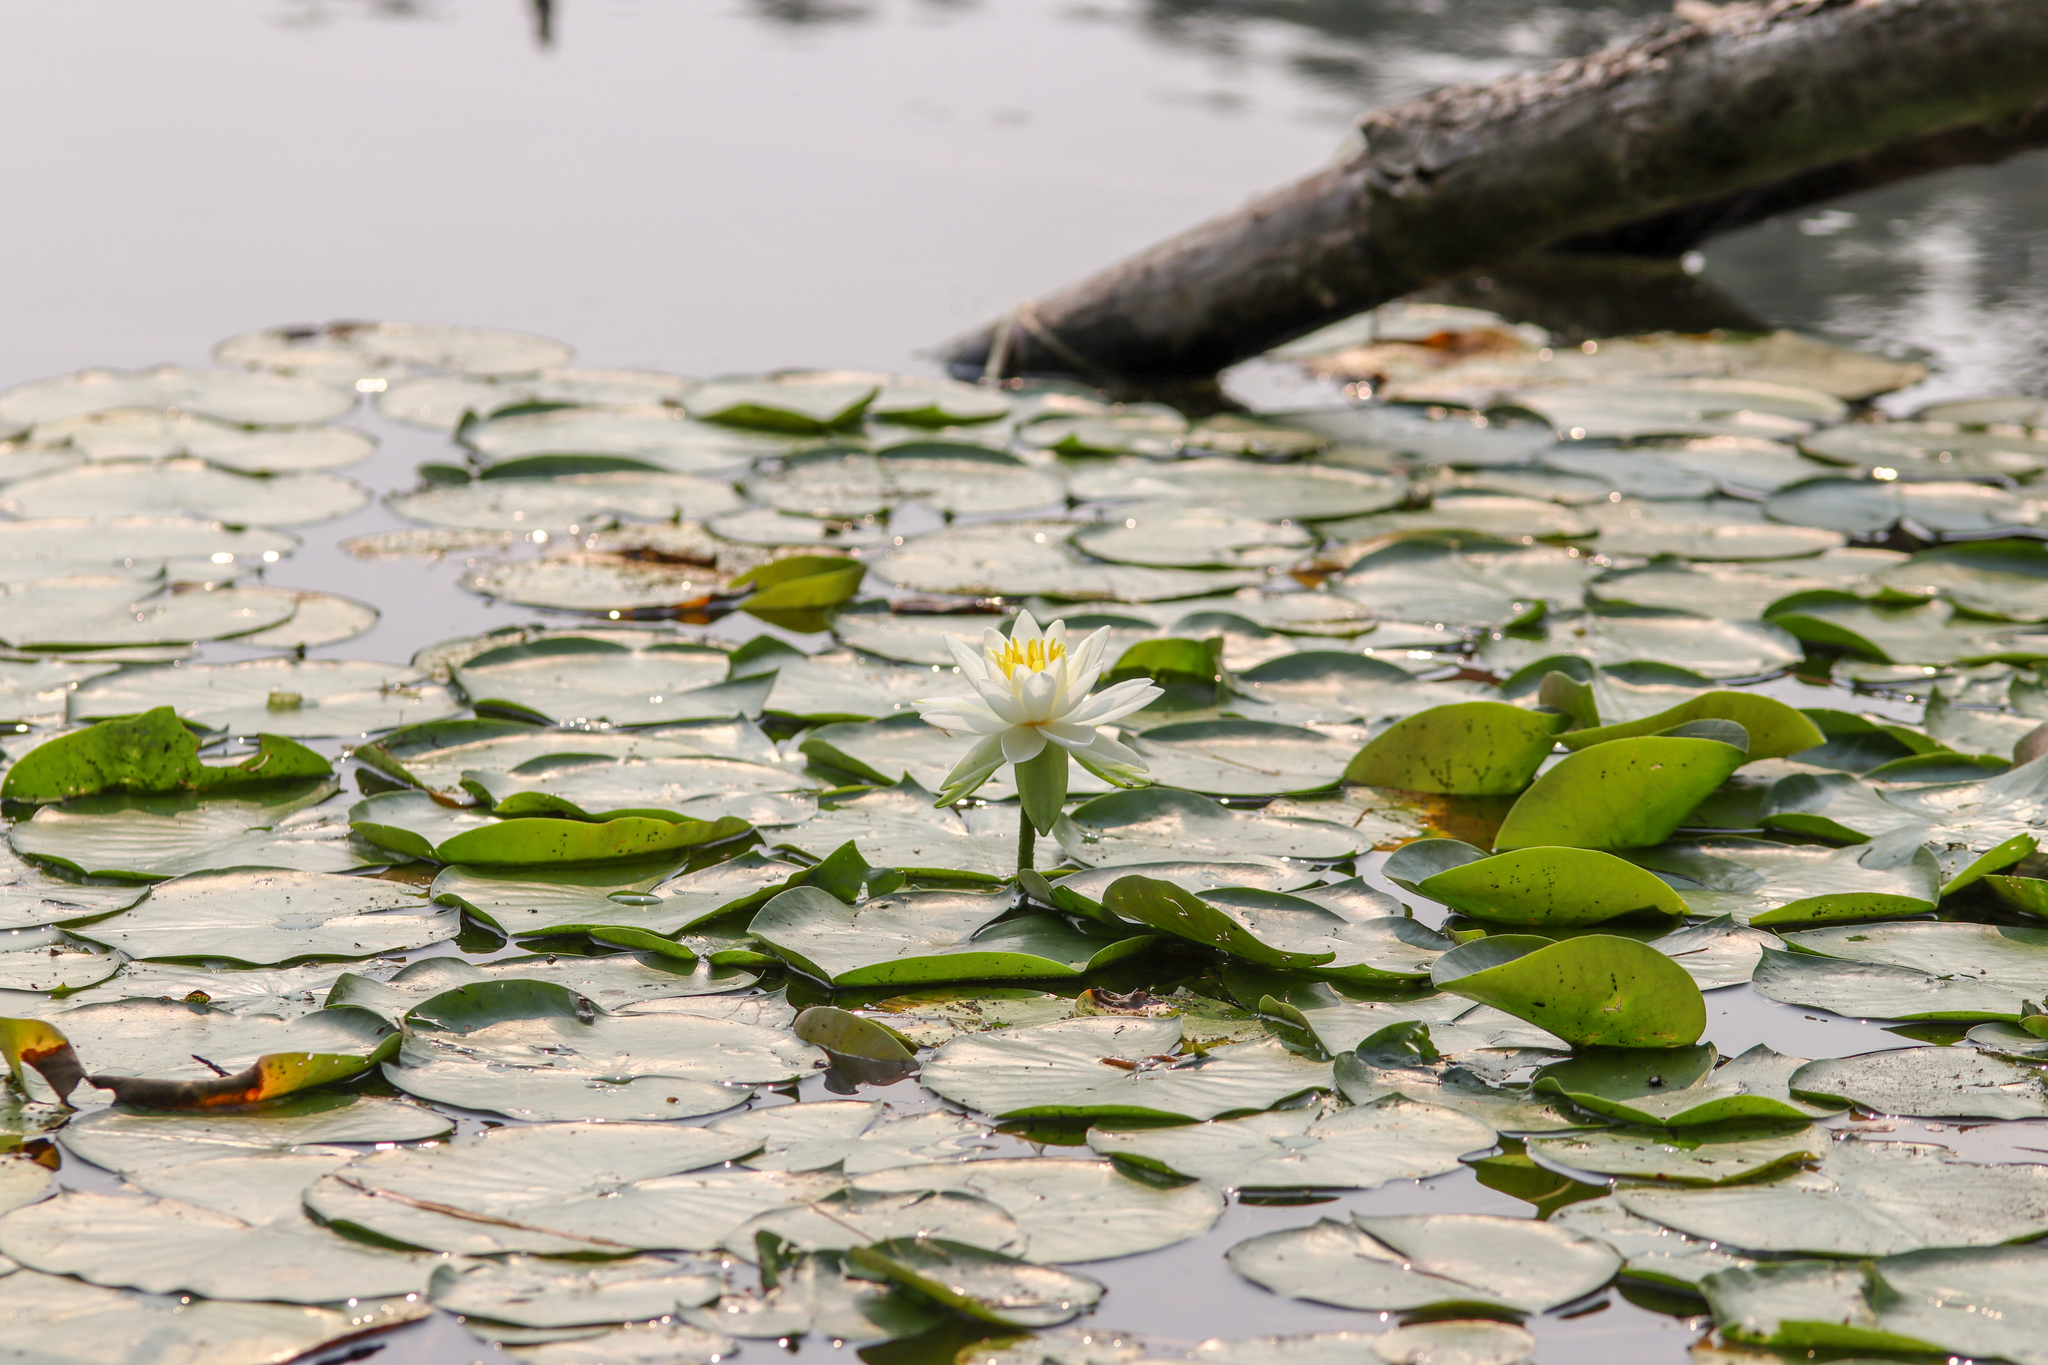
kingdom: Plantae
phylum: Tracheophyta
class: Magnoliopsida
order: Nymphaeales
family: Nymphaeaceae
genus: Nymphaea
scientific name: Nymphaea odorata
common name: Fragrant water-lily
